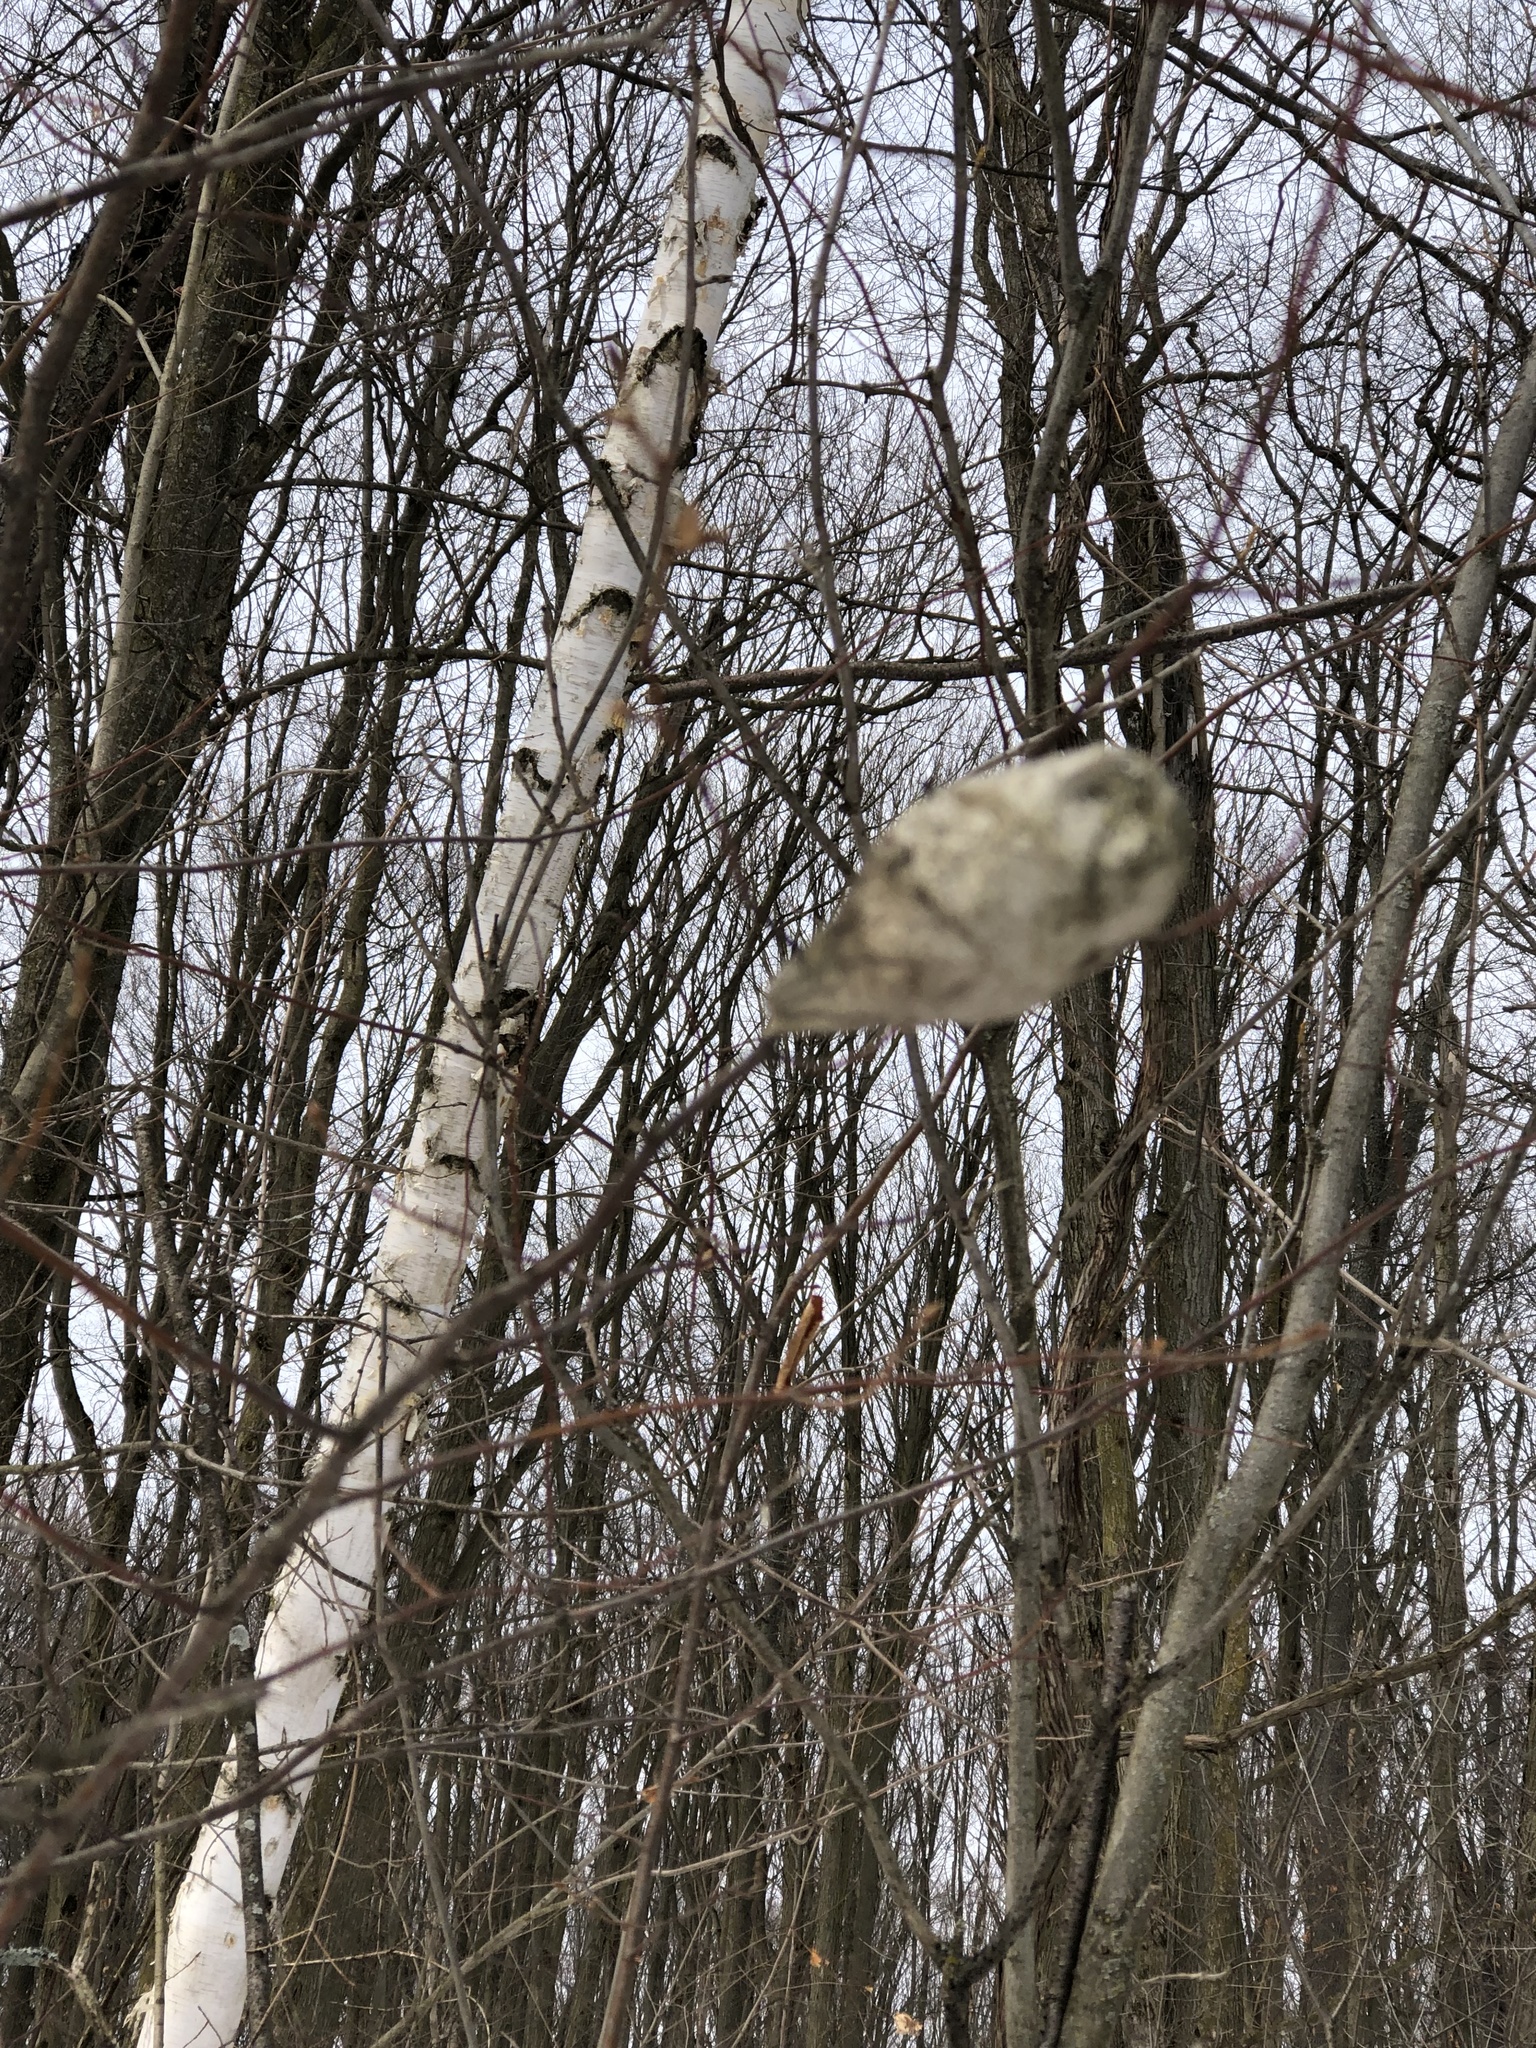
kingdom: Animalia
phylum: Arthropoda
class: Insecta
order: Lepidoptera
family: Saturniidae
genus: Hyalophora
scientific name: Hyalophora cecropia
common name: Cecropia silkmoth
